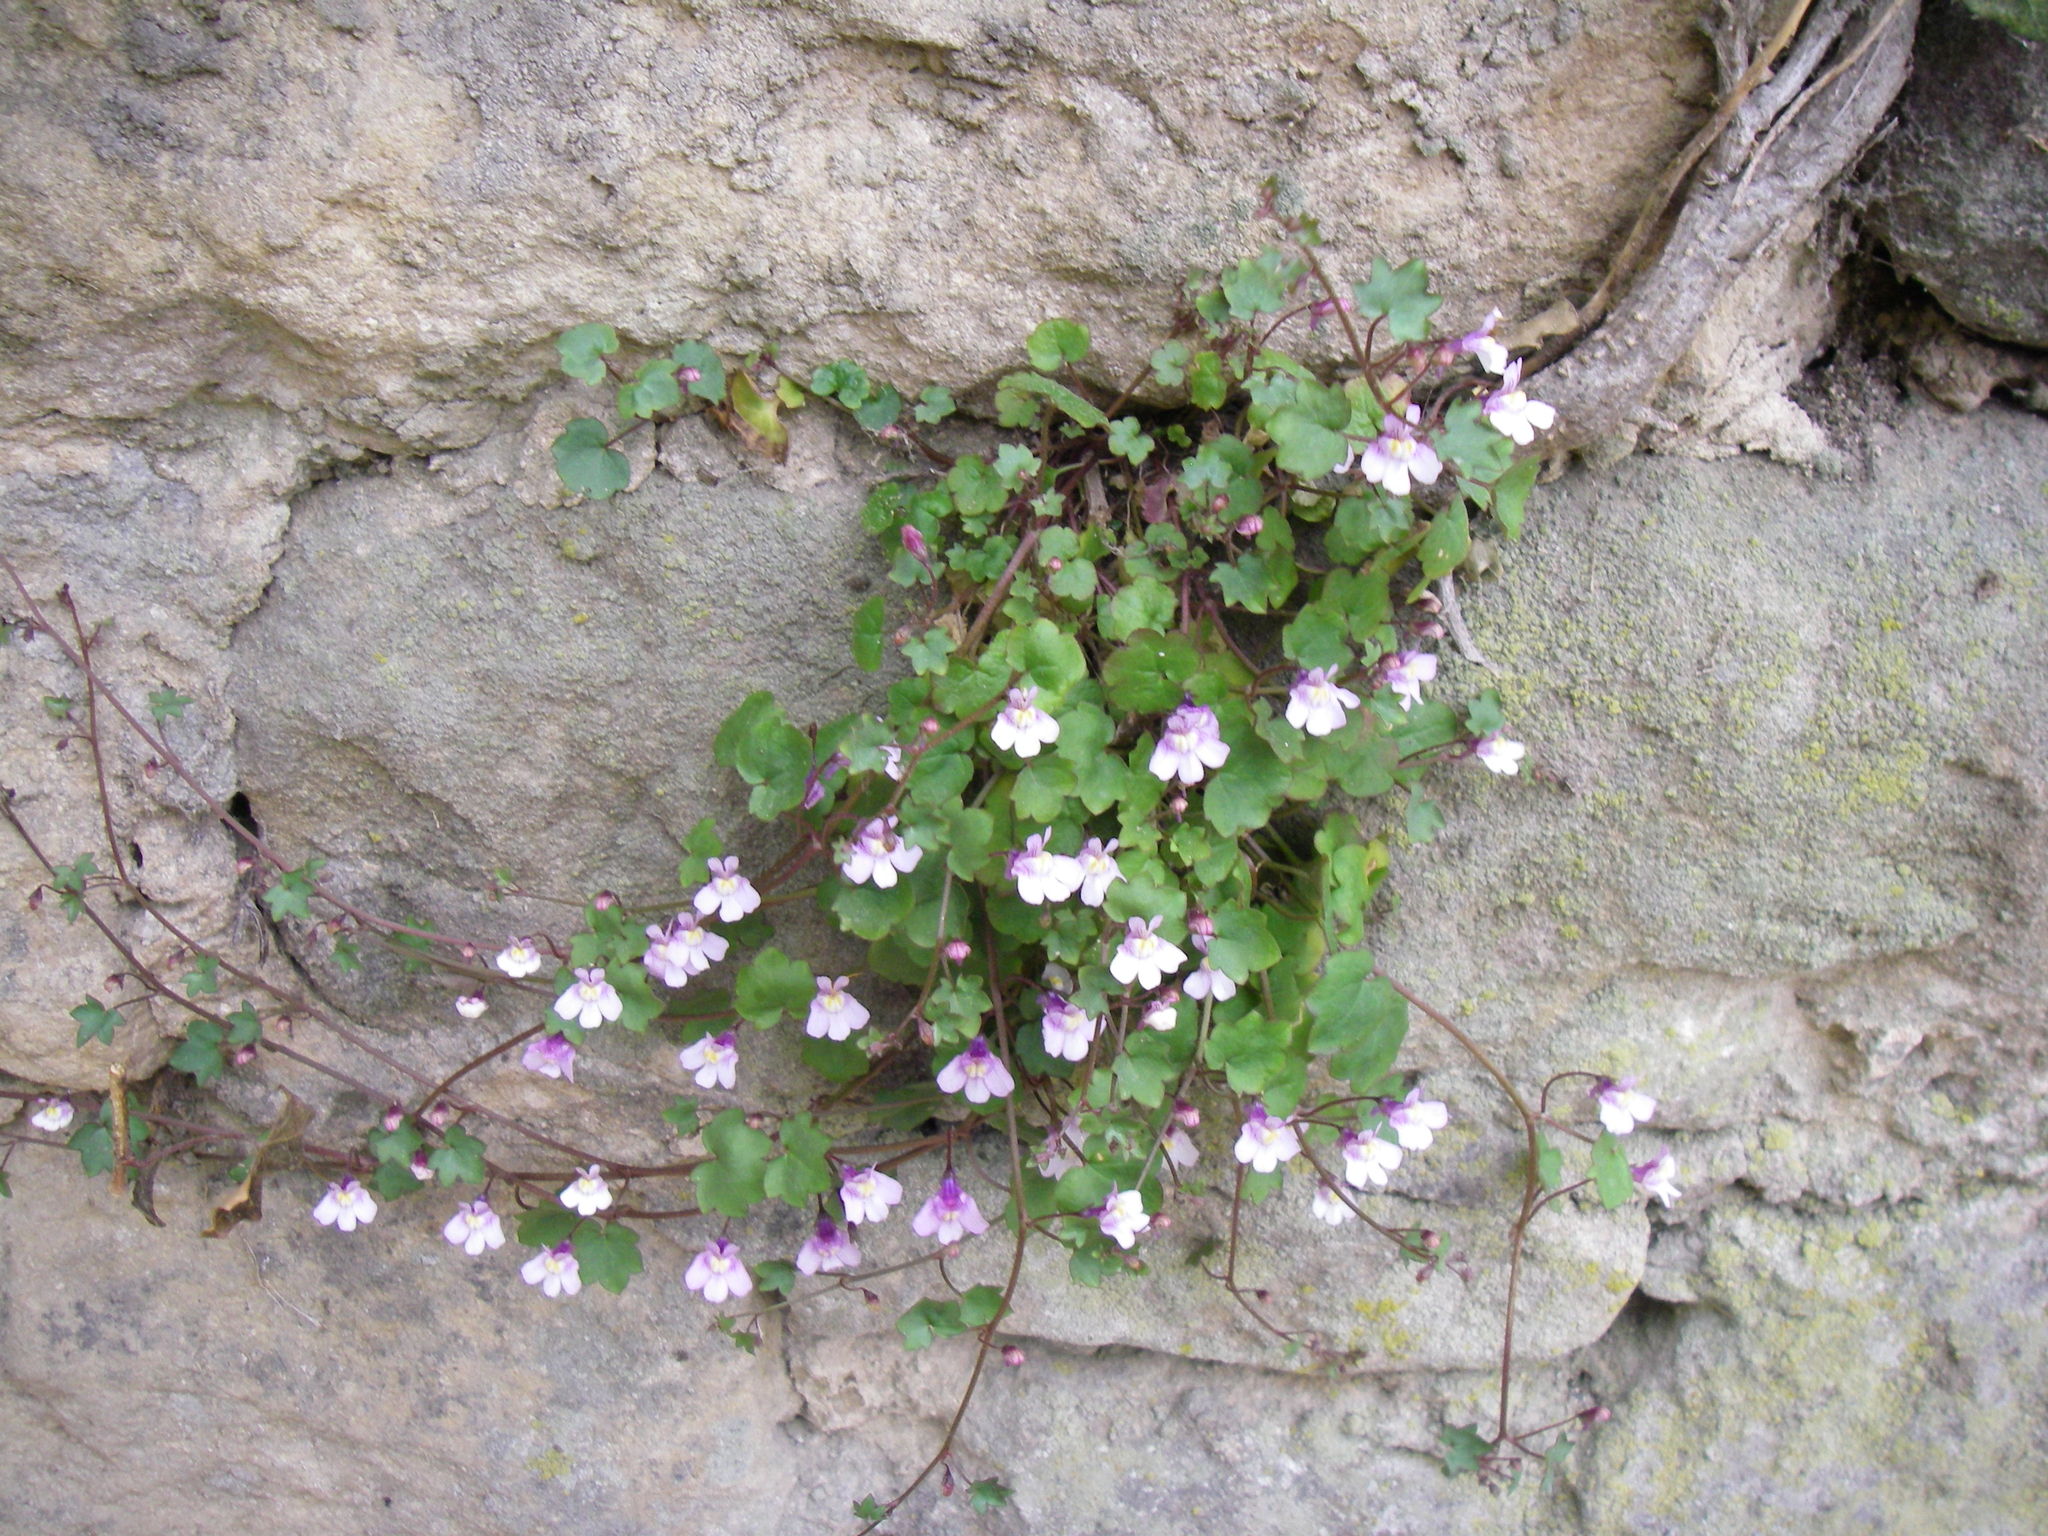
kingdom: Plantae
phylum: Tracheophyta
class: Magnoliopsida
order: Lamiales
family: Plantaginaceae
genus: Cymbalaria
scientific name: Cymbalaria muralis
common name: Ivy-leaved toadflax
